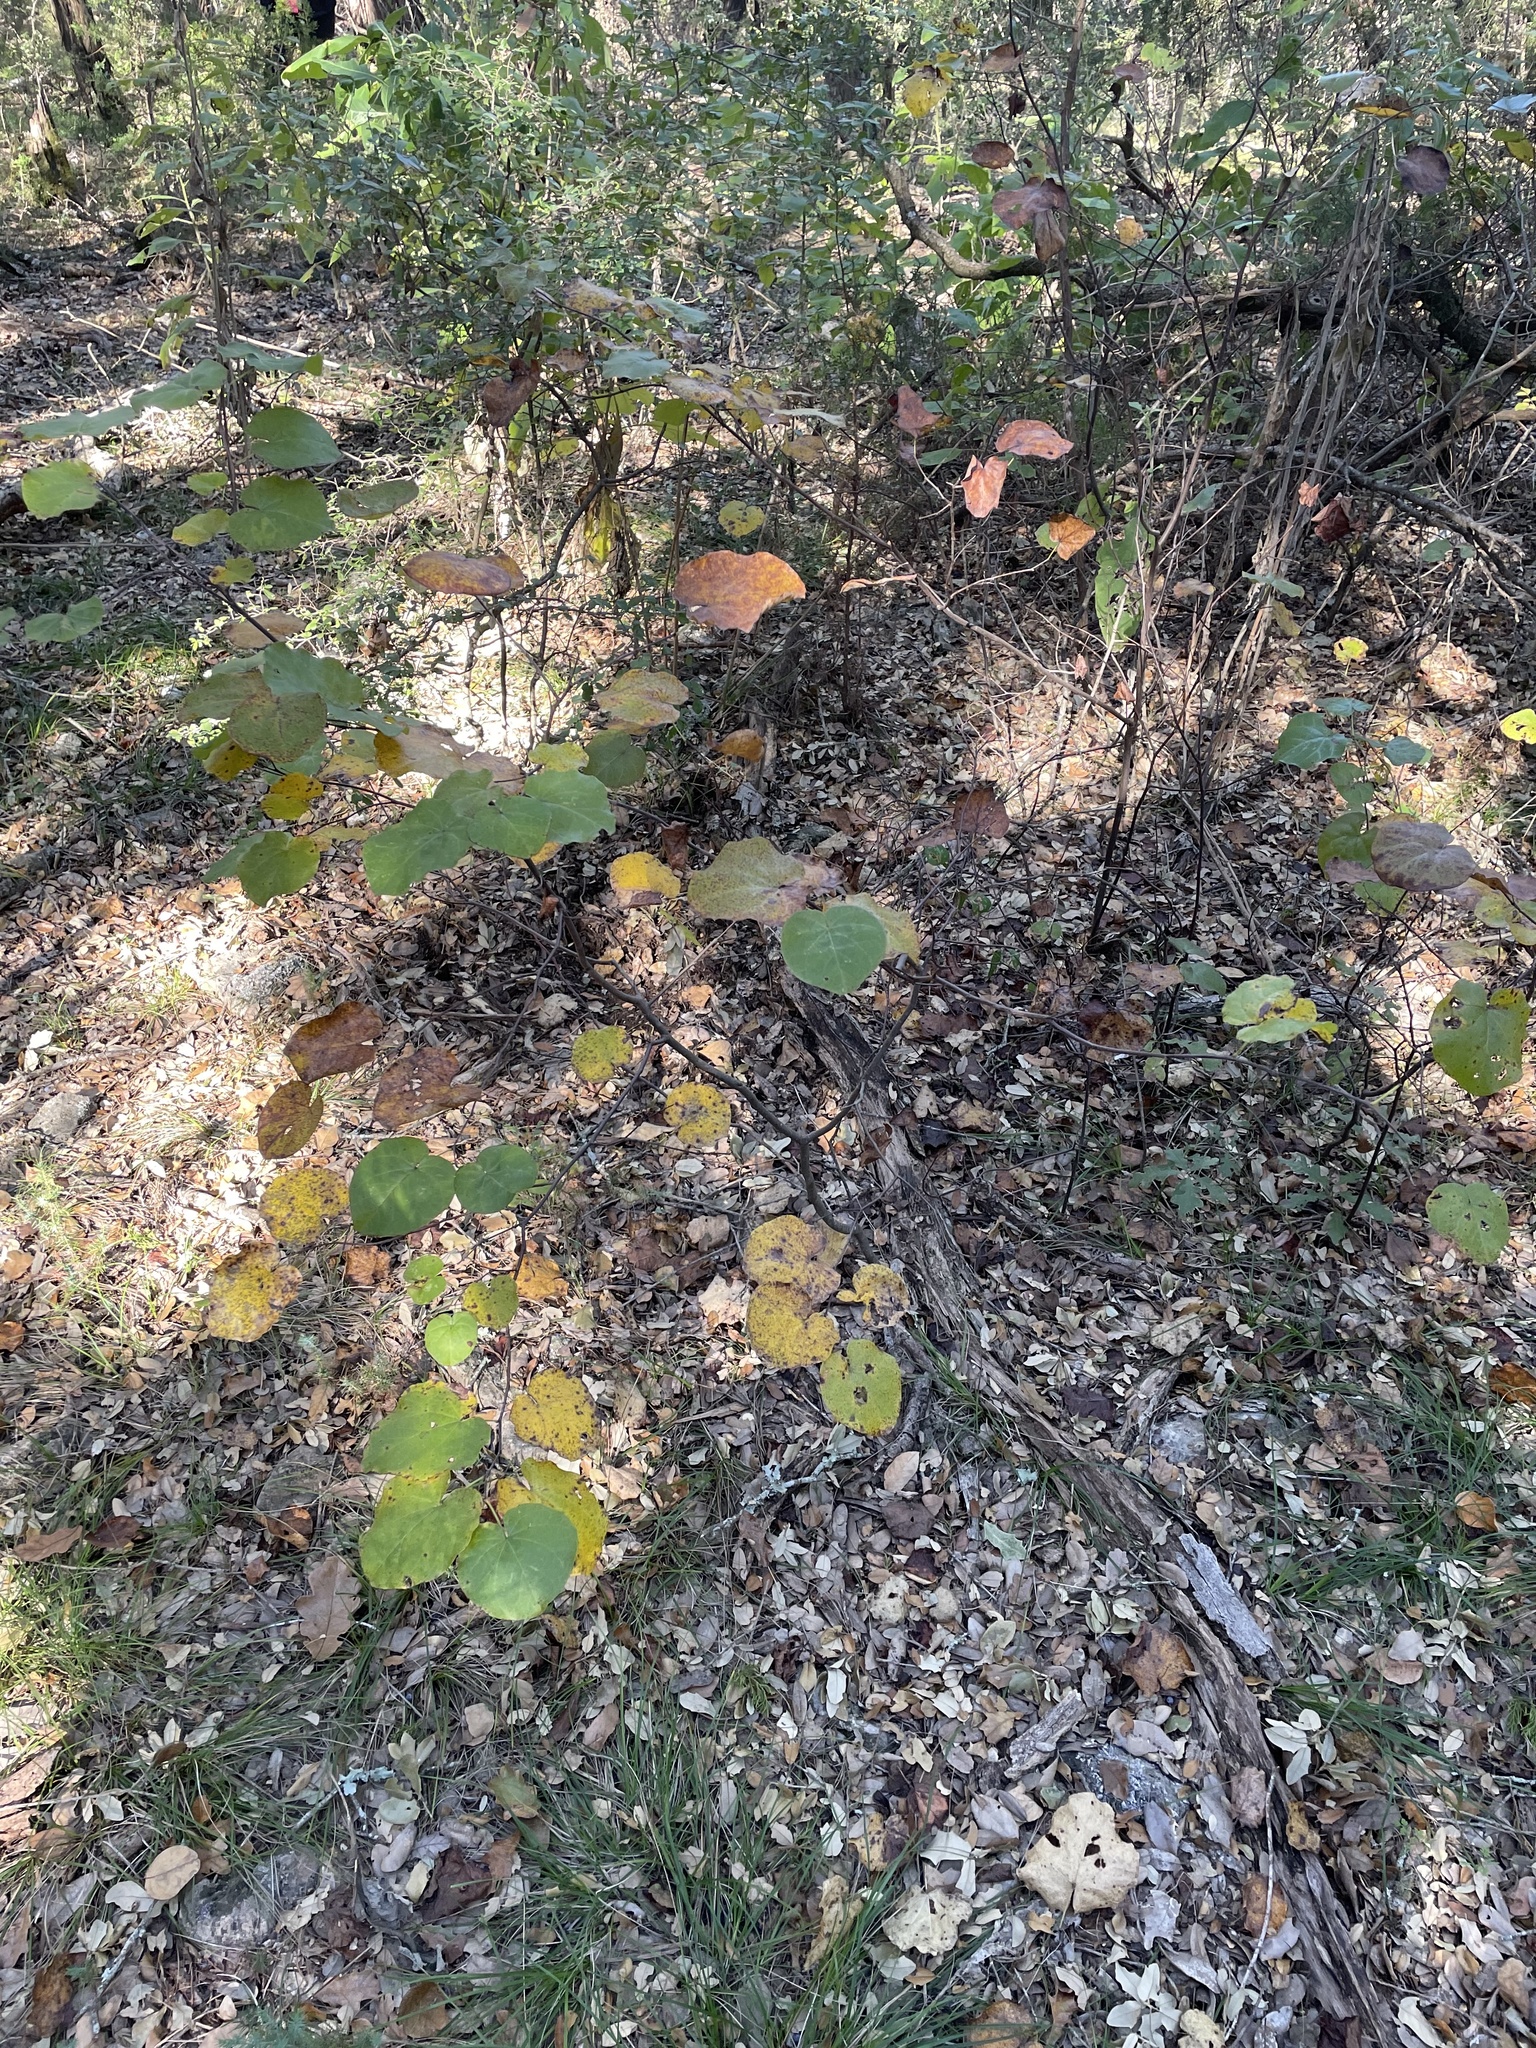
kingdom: Plantae
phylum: Tracheophyta
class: Magnoliopsida
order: Fabales
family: Fabaceae
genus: Cercis
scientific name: Cercis canadensis
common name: Eastern redbud
